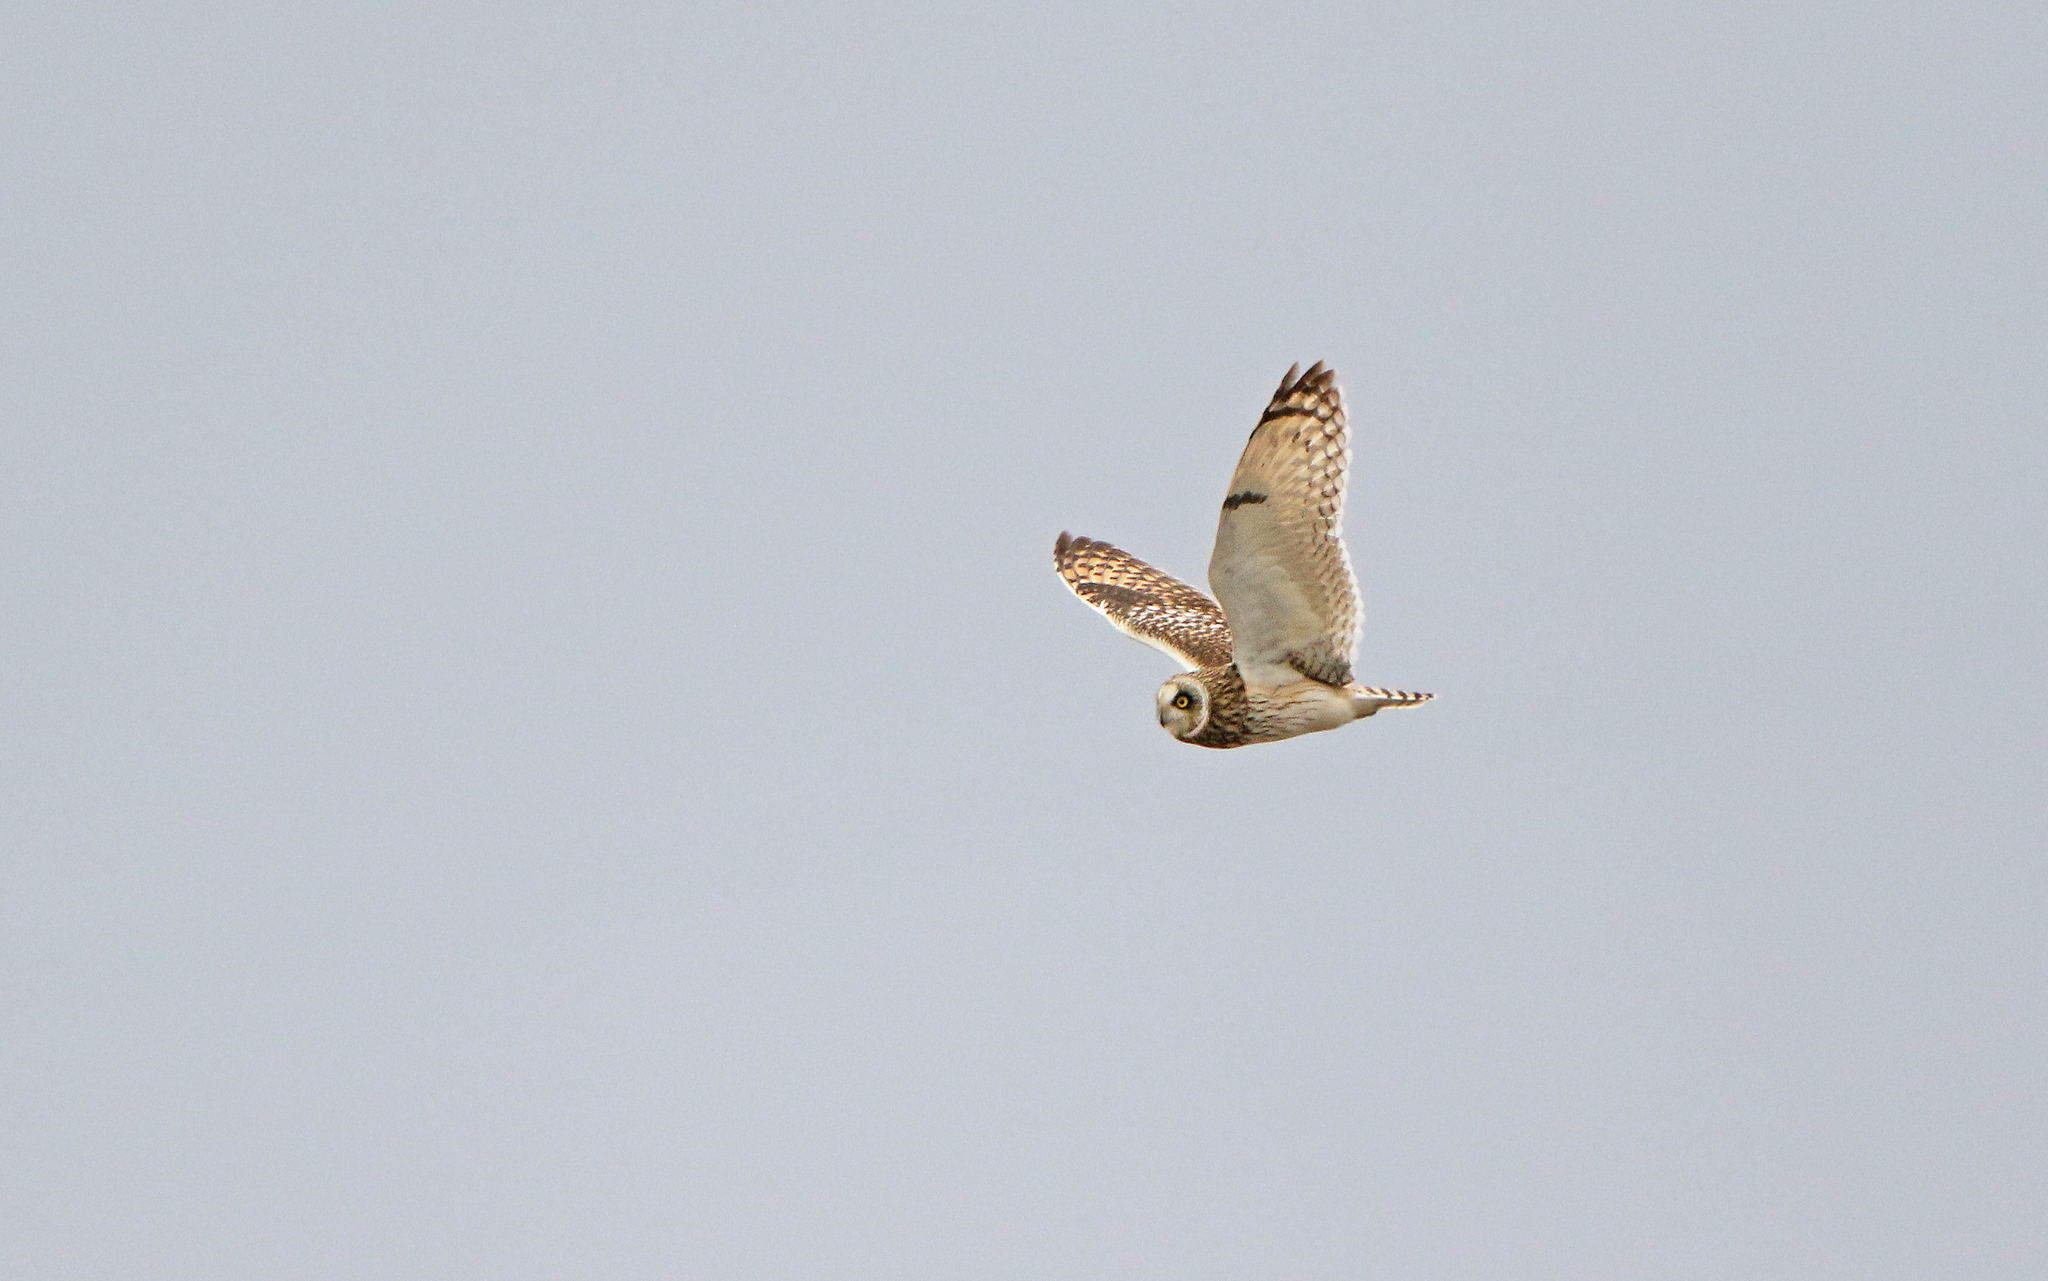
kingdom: Animalia
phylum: Chordata
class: Aves
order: Strigiformes
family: Strigidae
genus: Asio
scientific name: Asio flammeus
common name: Short-eared owl
